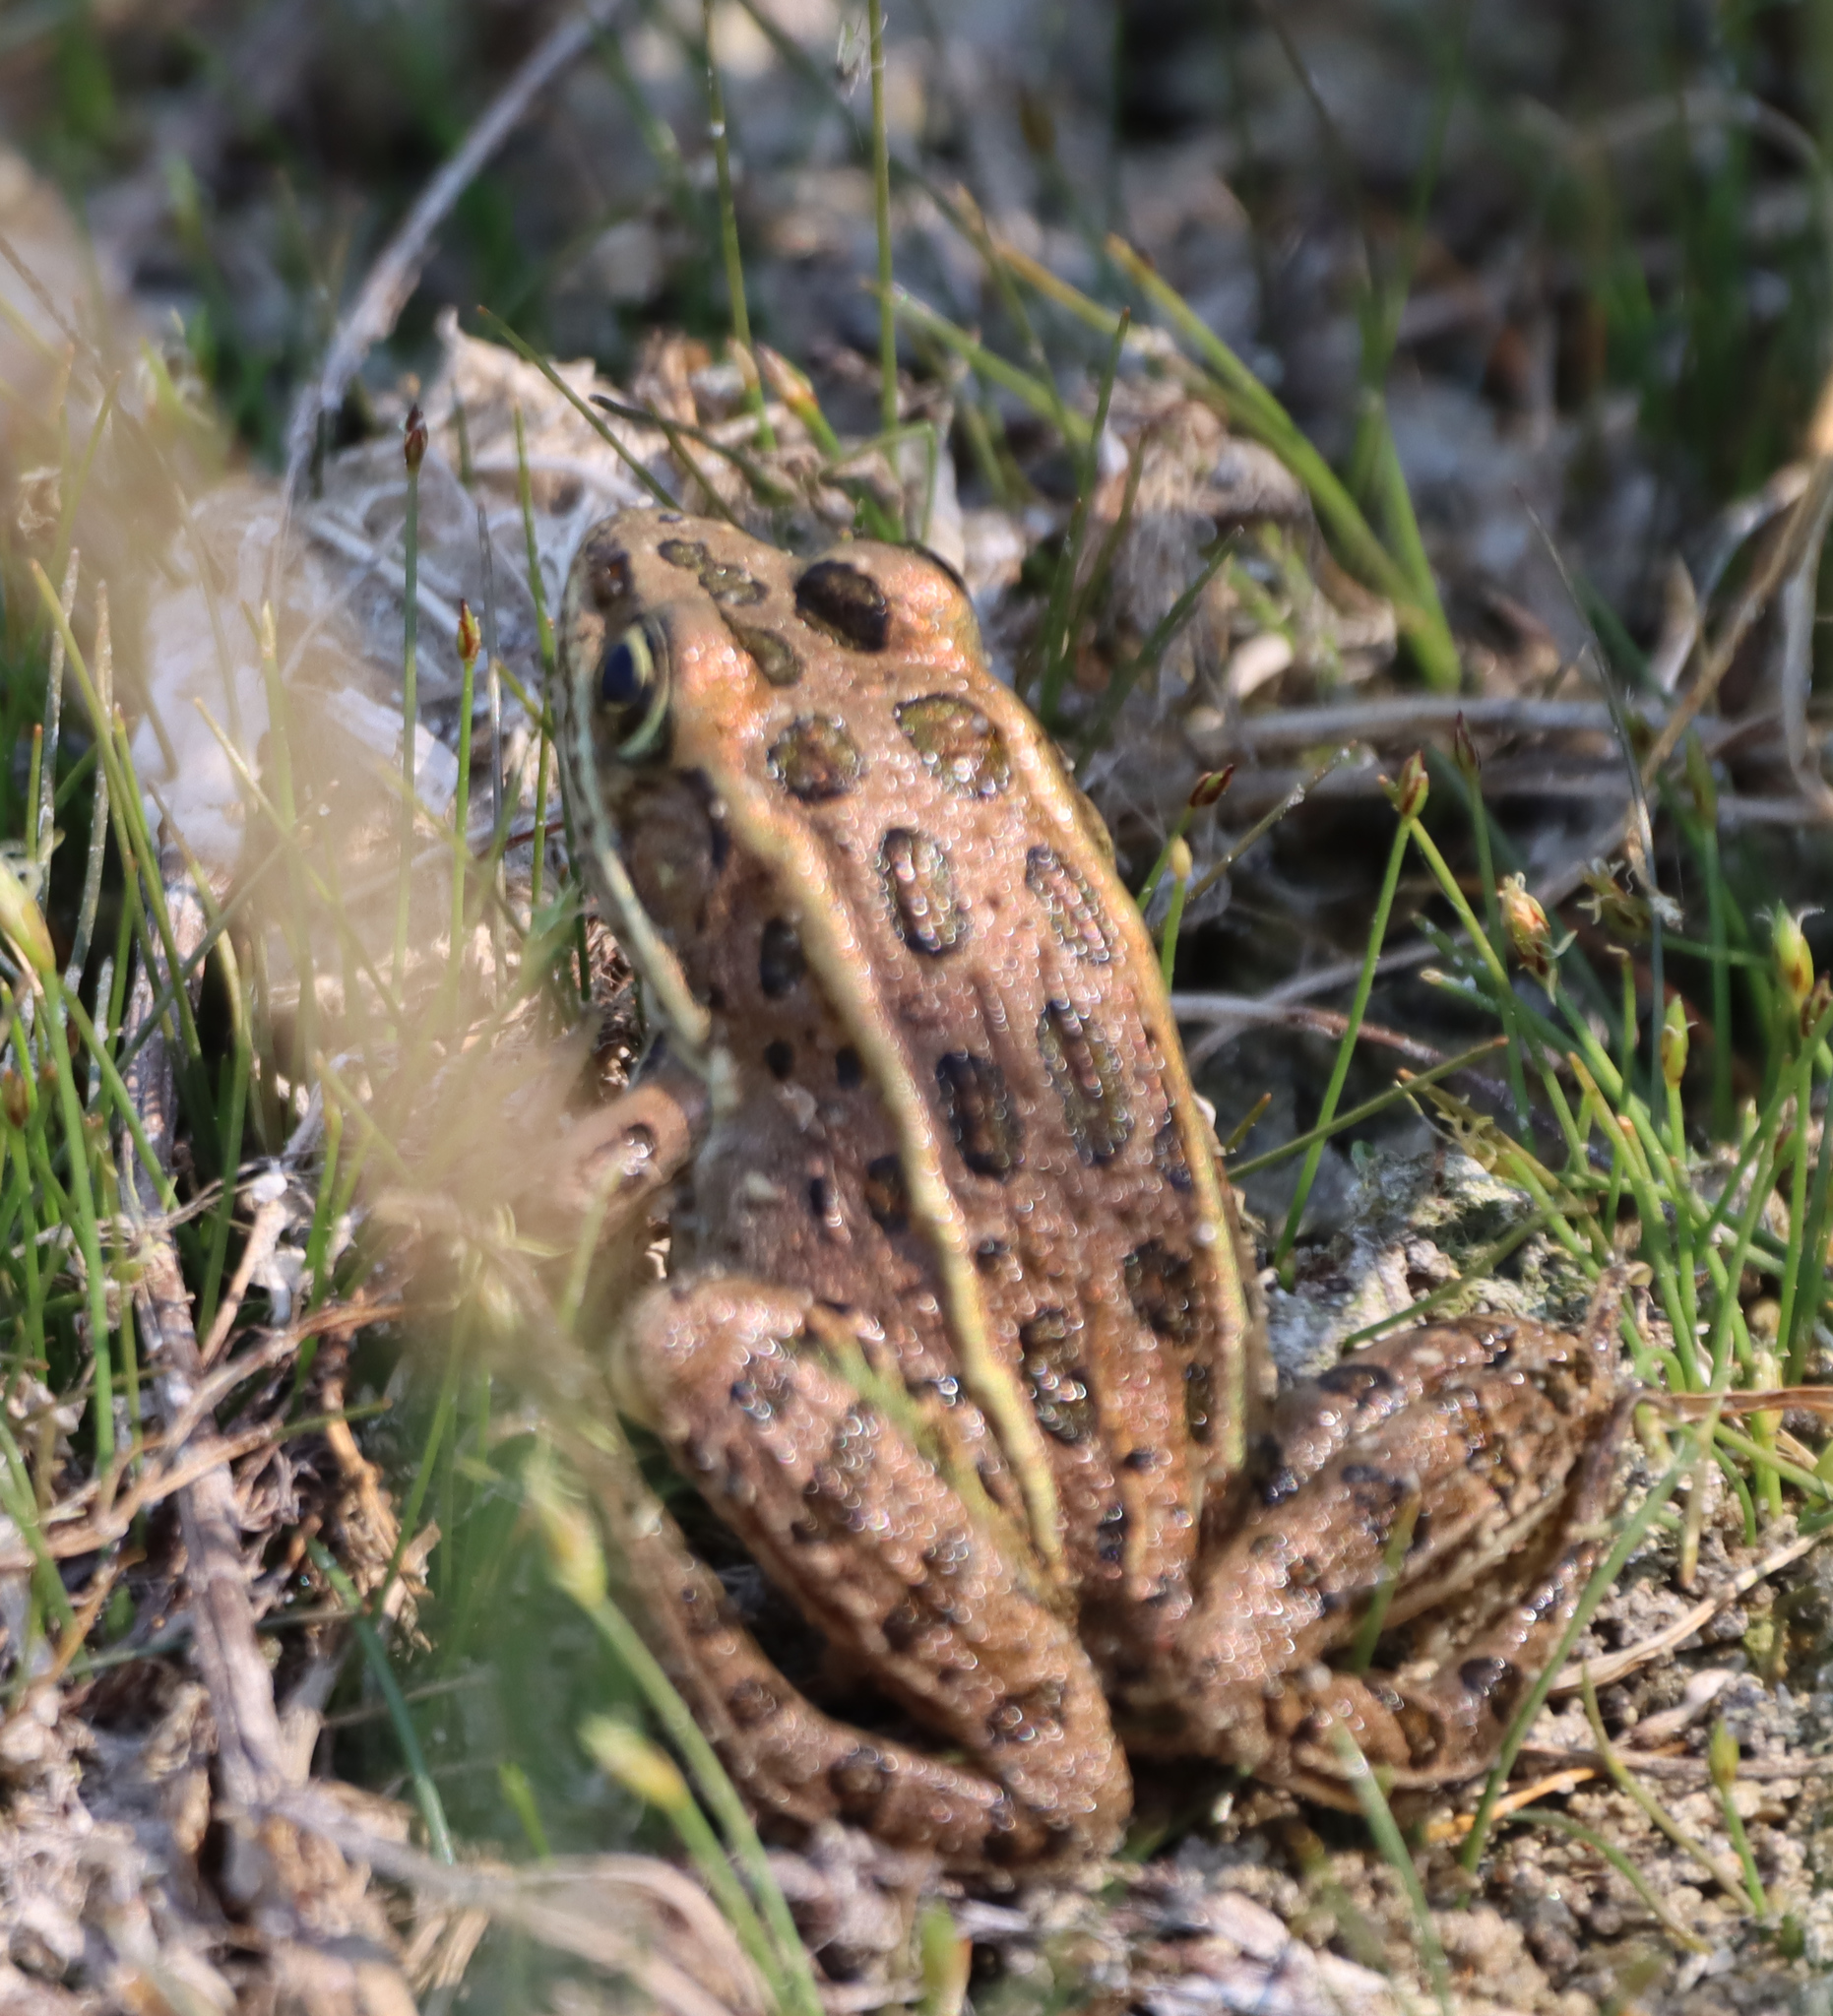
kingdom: Animalia
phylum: Chordata
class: Amphibia
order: Anura
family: Ranidae
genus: Lithobates
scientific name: Lithobates pipiens
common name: Northern leopard frog
